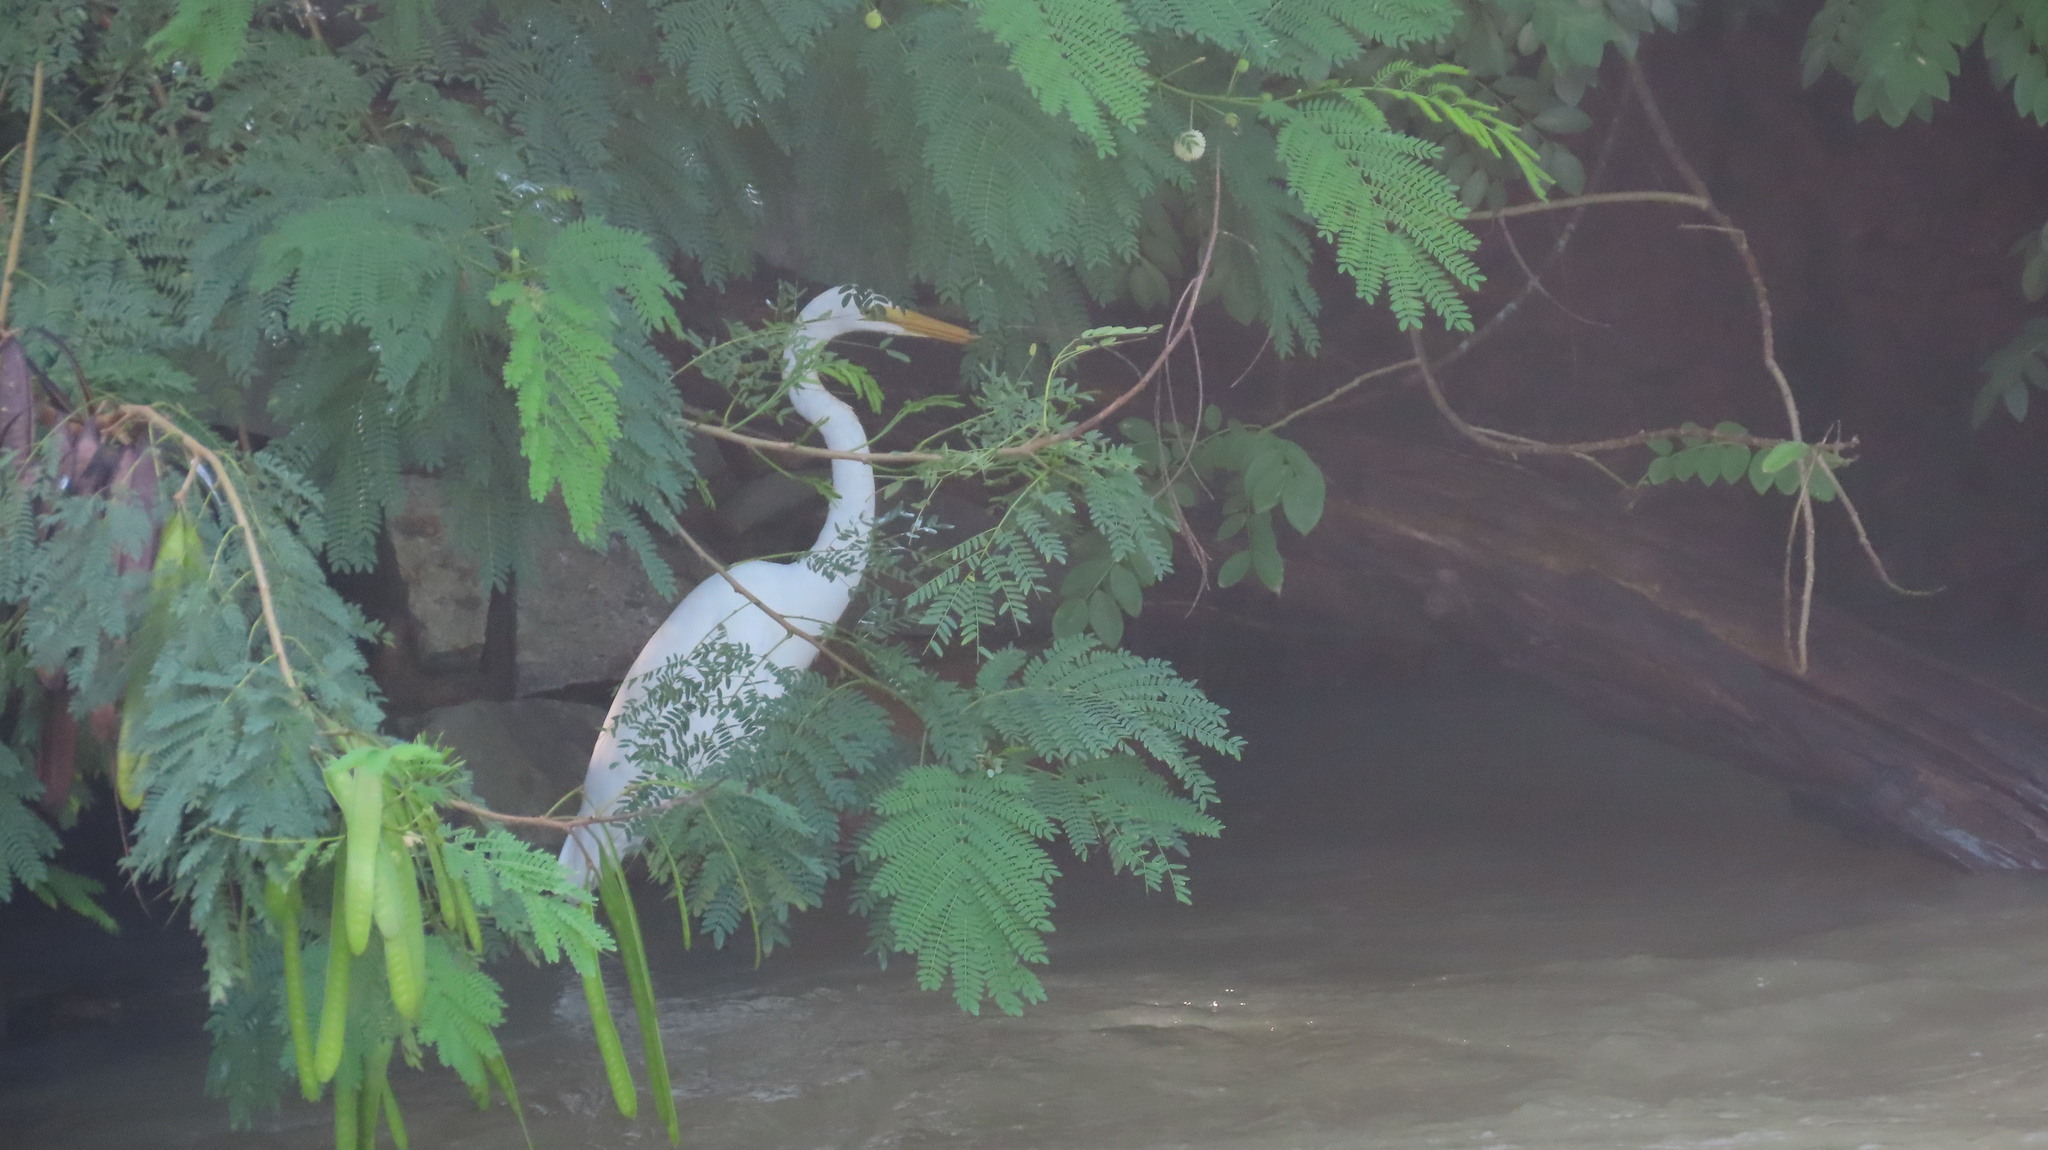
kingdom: Animalia
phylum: Chordata
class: Aves
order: Pelecaniformes
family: Ardeidae
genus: Ardea
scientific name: Ardea alba
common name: Great egret
